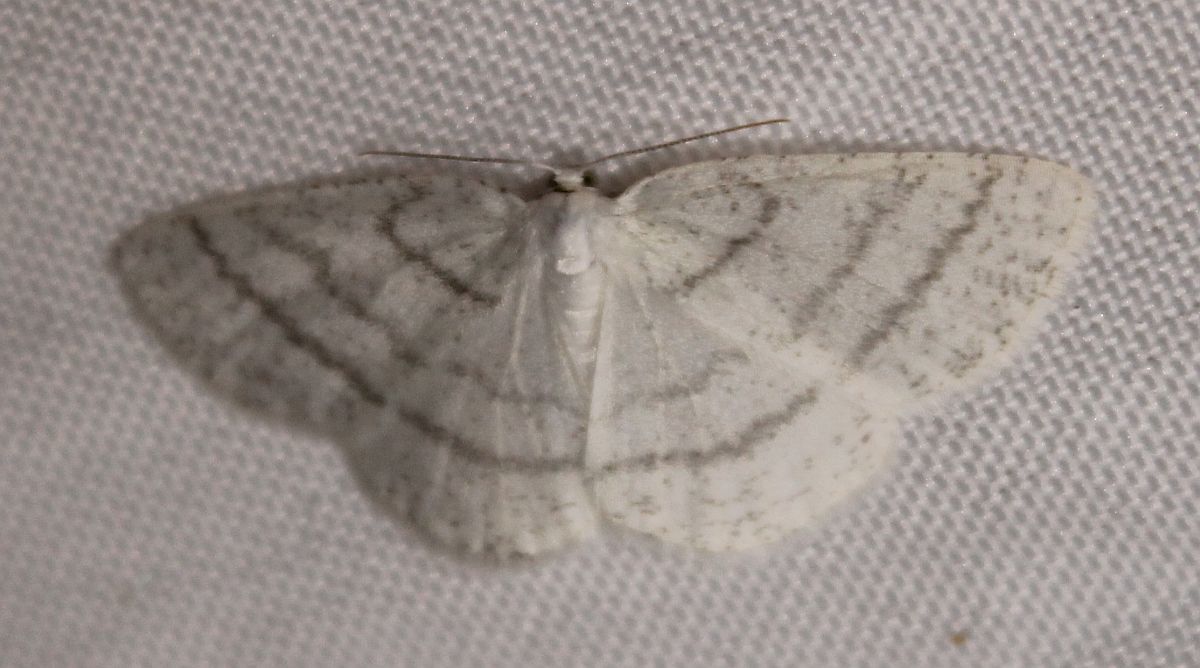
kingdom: Animalia
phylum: Arthropoda
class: Insecta
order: Lepidoptera
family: Geometridae
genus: Cabera
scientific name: Cabera pusaria
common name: Common white wave
